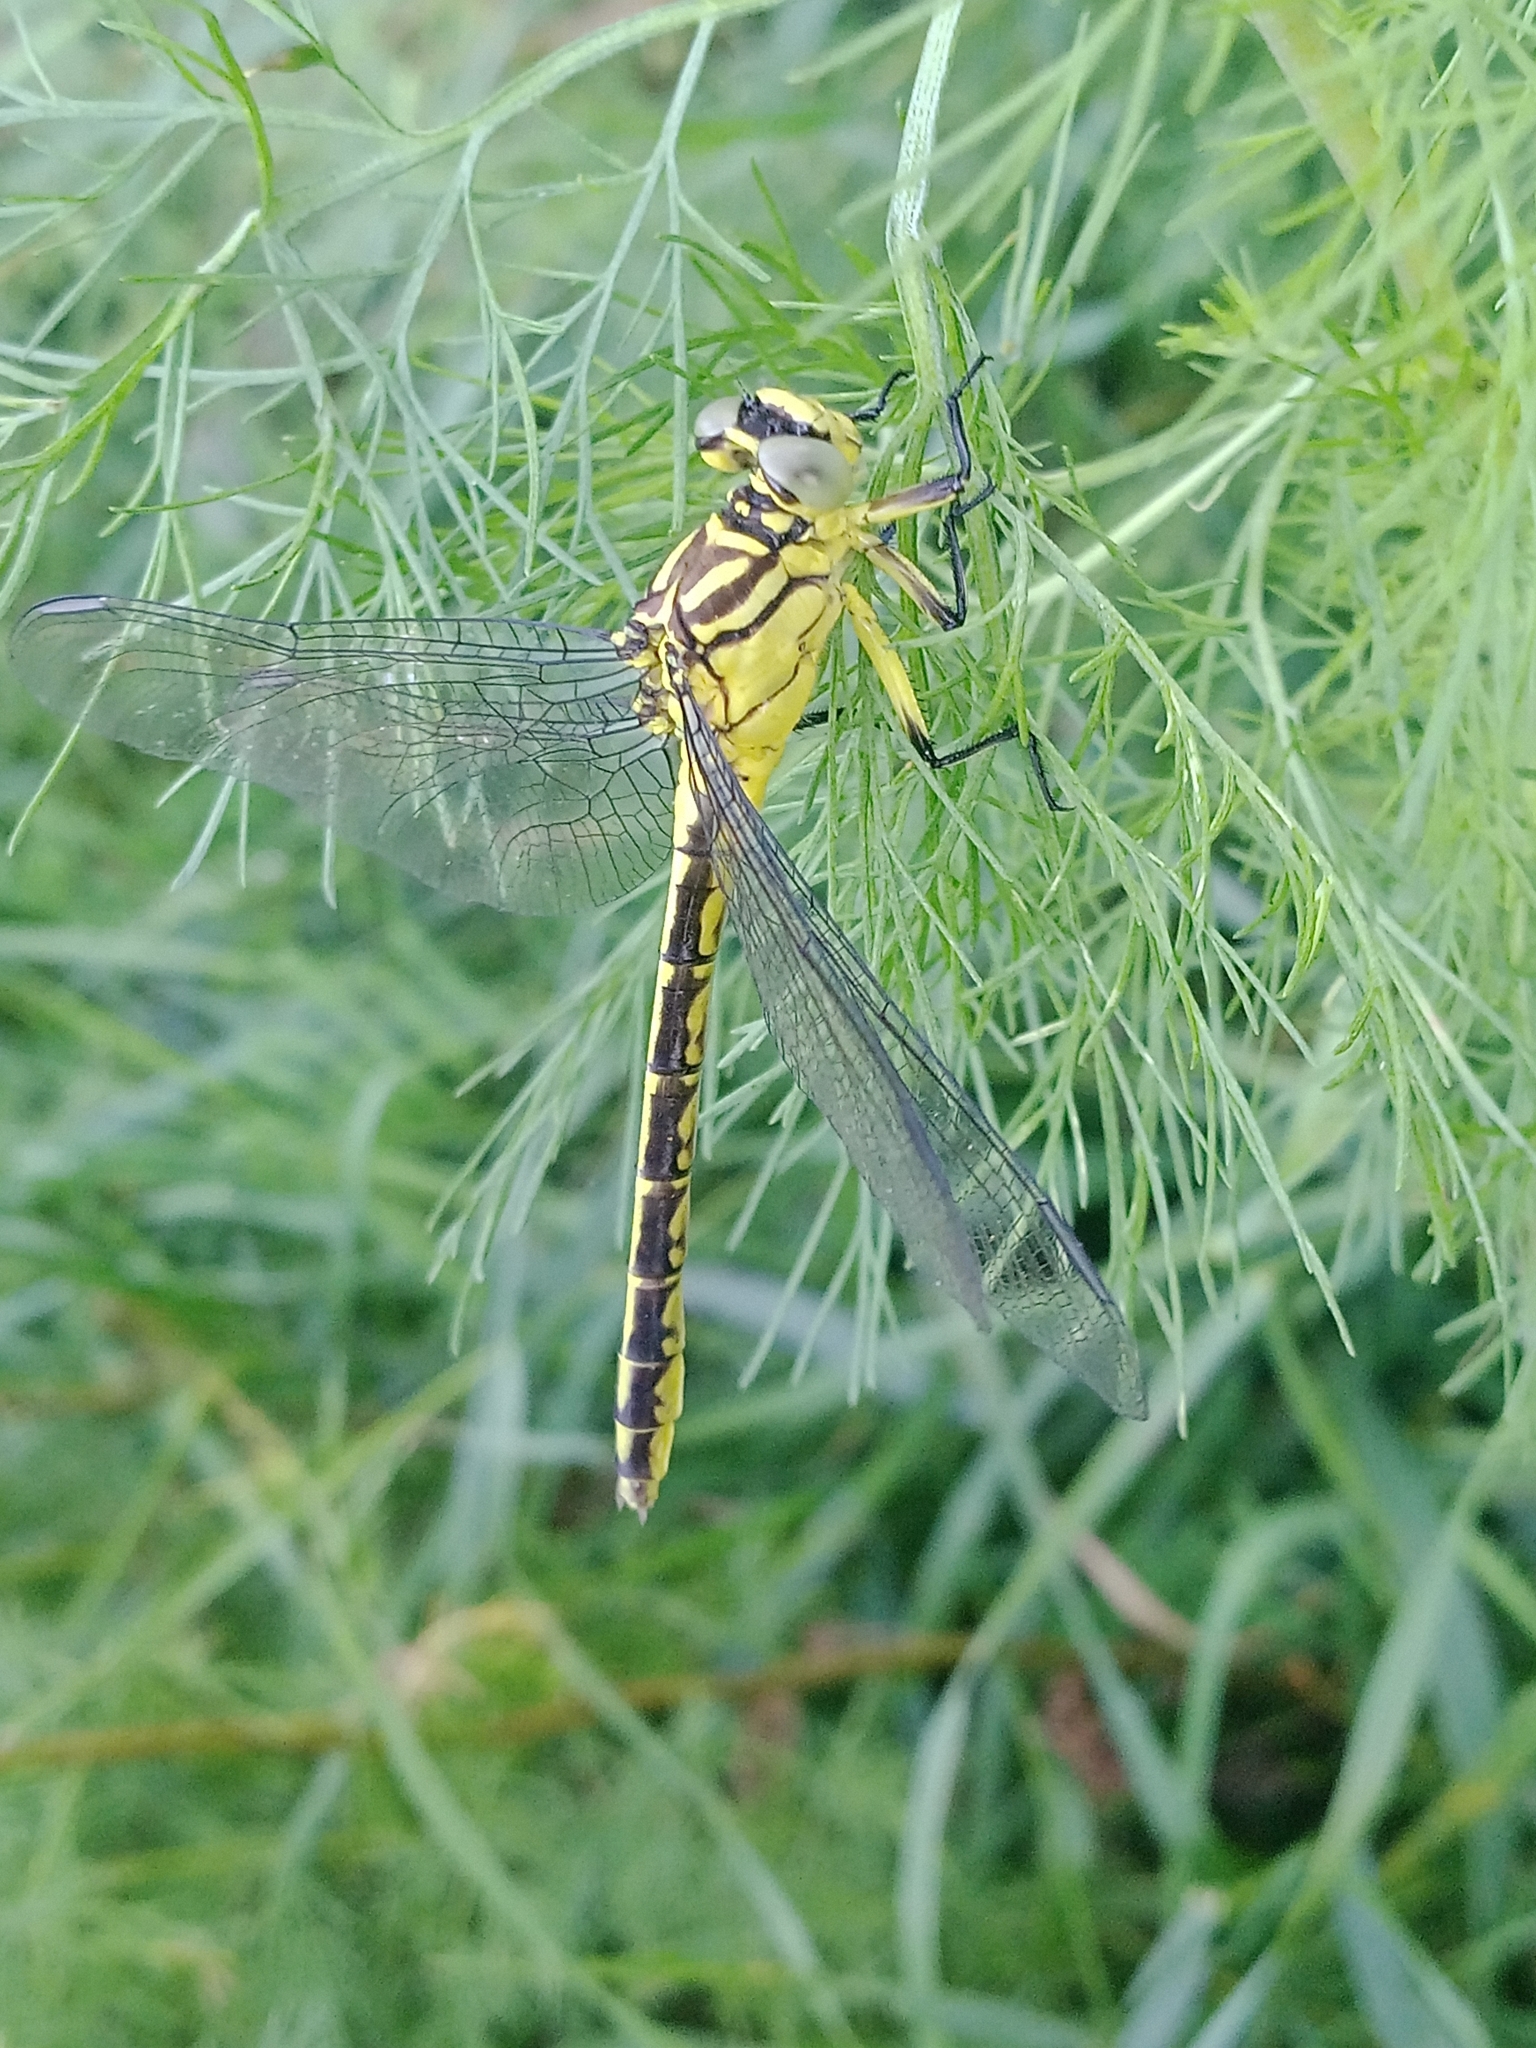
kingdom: Animalia
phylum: Arthropoda
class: Insecta
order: Odonata
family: Gomphidae
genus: Stylurus
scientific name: Stylurus flavipes
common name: River clubtail
